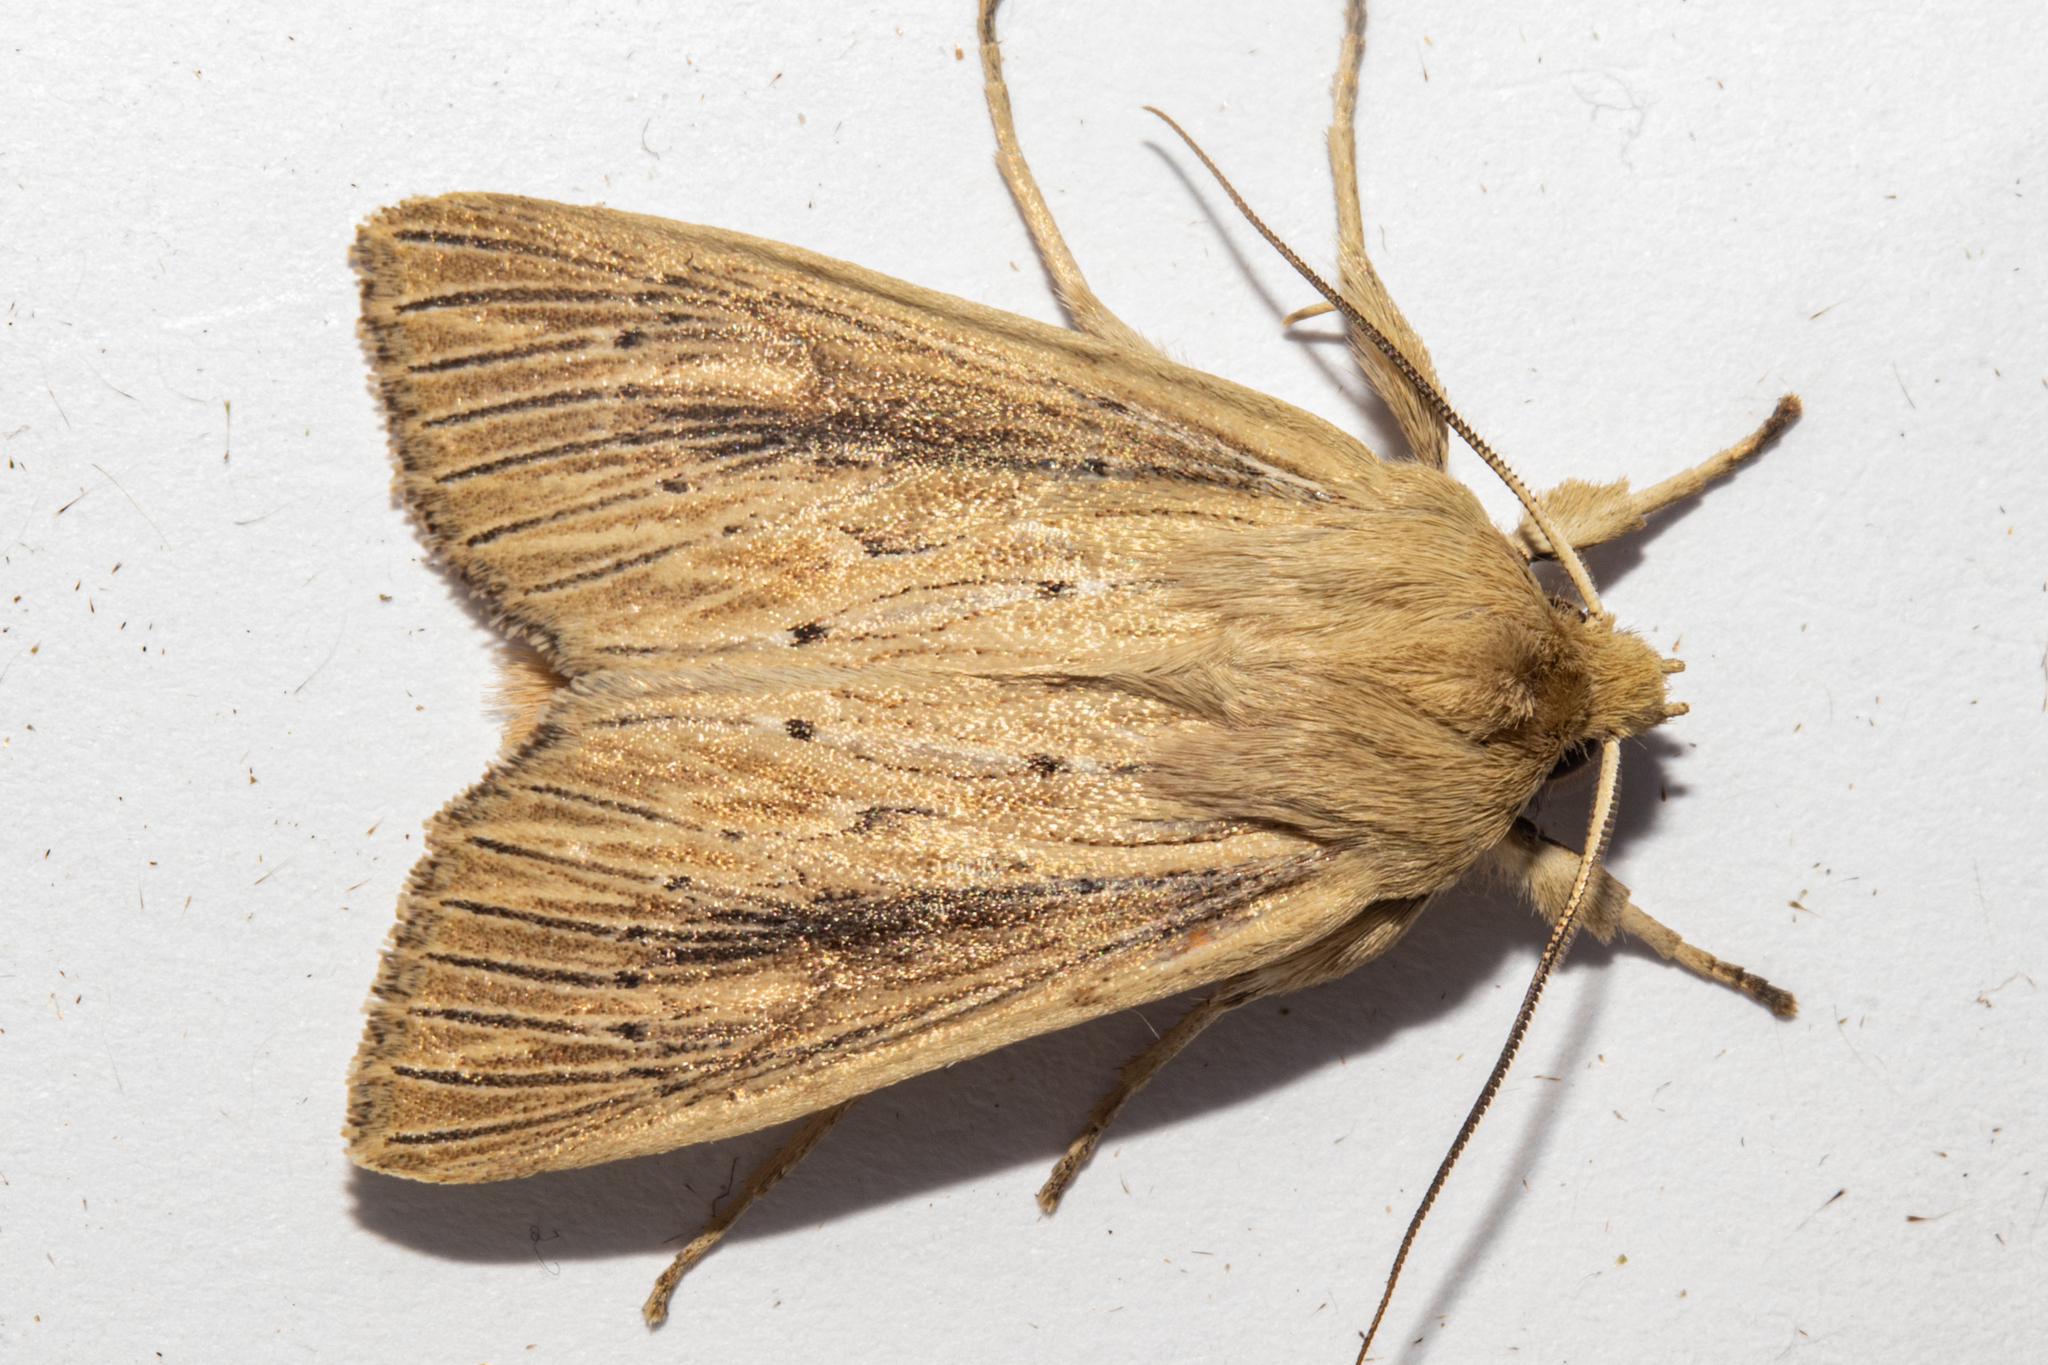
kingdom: Animalia
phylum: Arthropoda
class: Insecta
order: Lepidoptera
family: Noctuidae
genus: Ichneutica
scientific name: Ichneutica arotis
